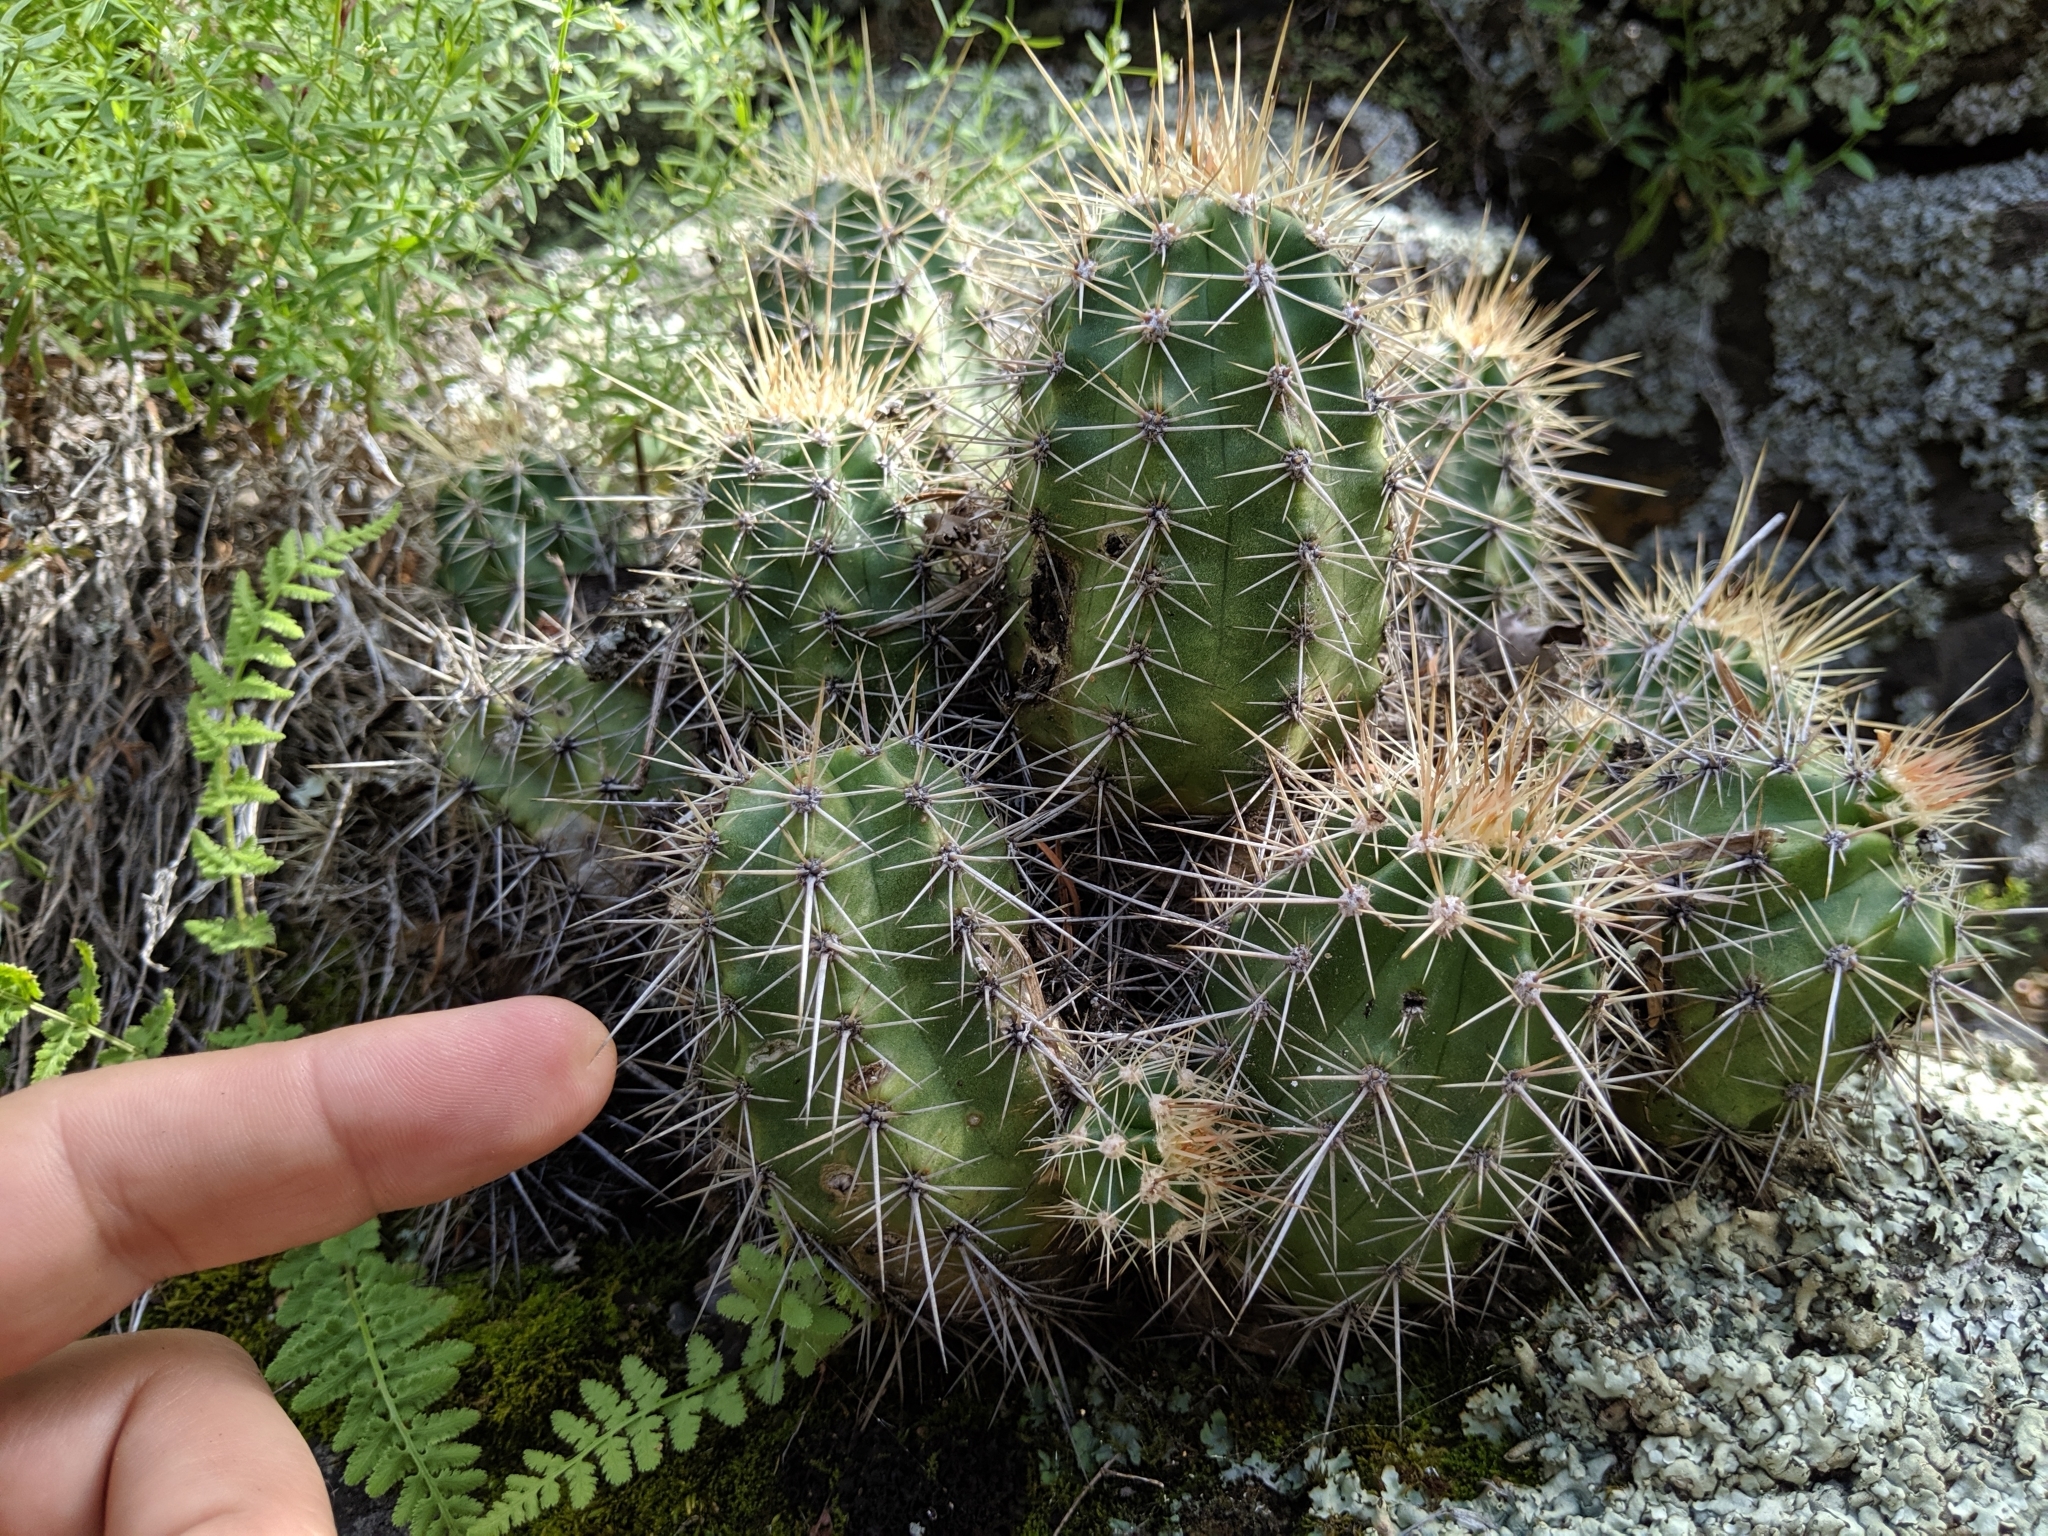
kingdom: Plantae
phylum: Tracheophyta
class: Magnoliopsida
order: Caryophyllales
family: Cactaceae
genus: Echinocereus
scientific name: Echinocereus coccineus
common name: Scarlet hedgehog cactus
